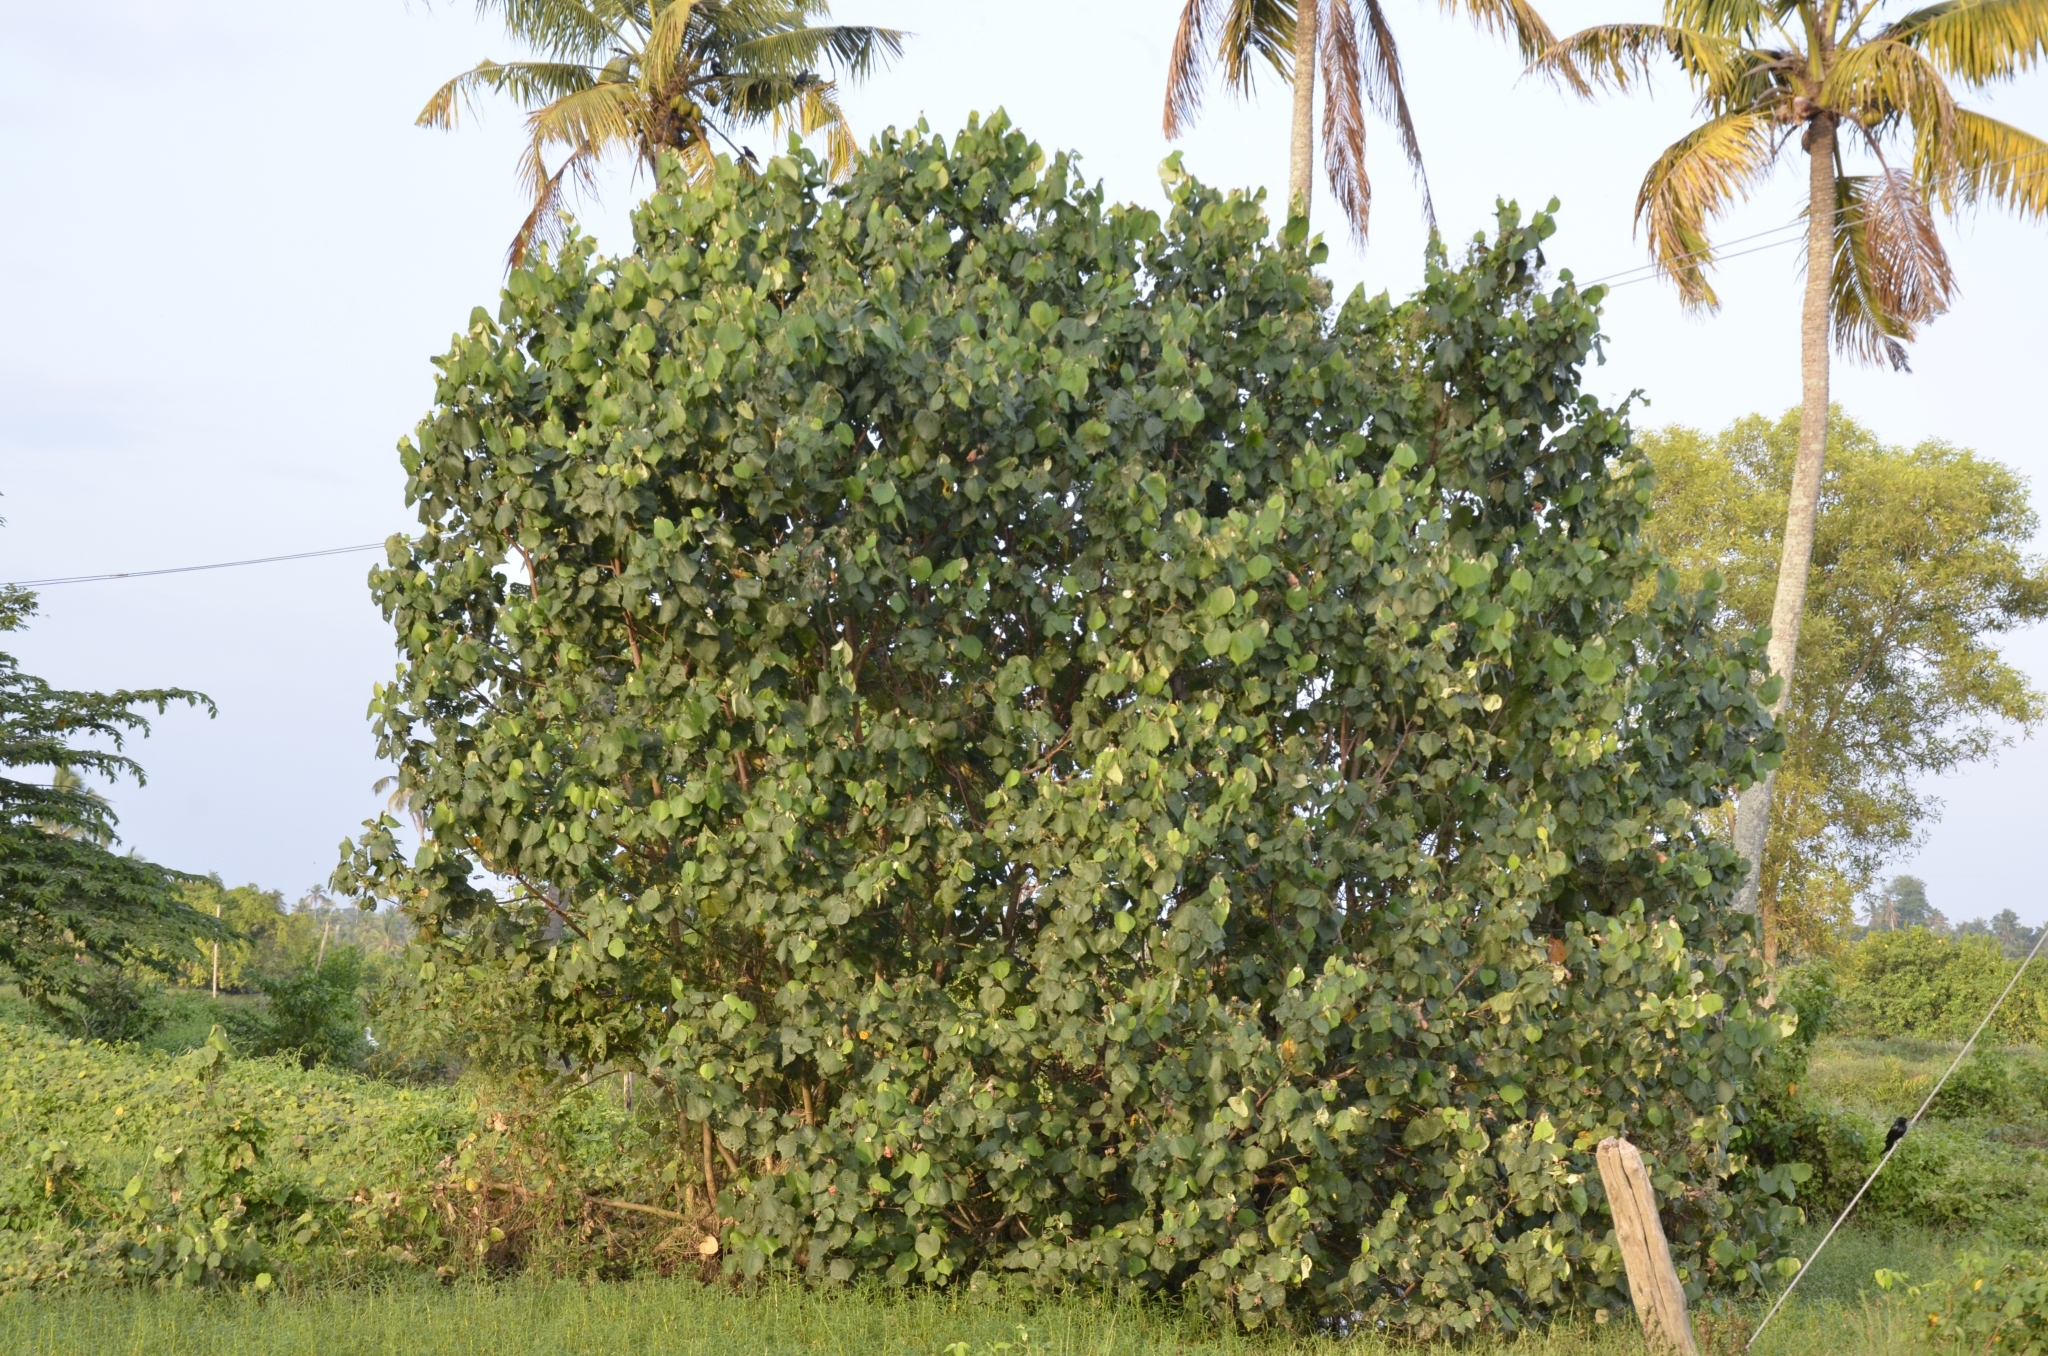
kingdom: Plantae
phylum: Tracheophyta
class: Magnoliopsida
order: Malvales
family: Malvaceae
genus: Talipariti
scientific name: Talipariti tiliaceum
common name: Sea hibiscus
